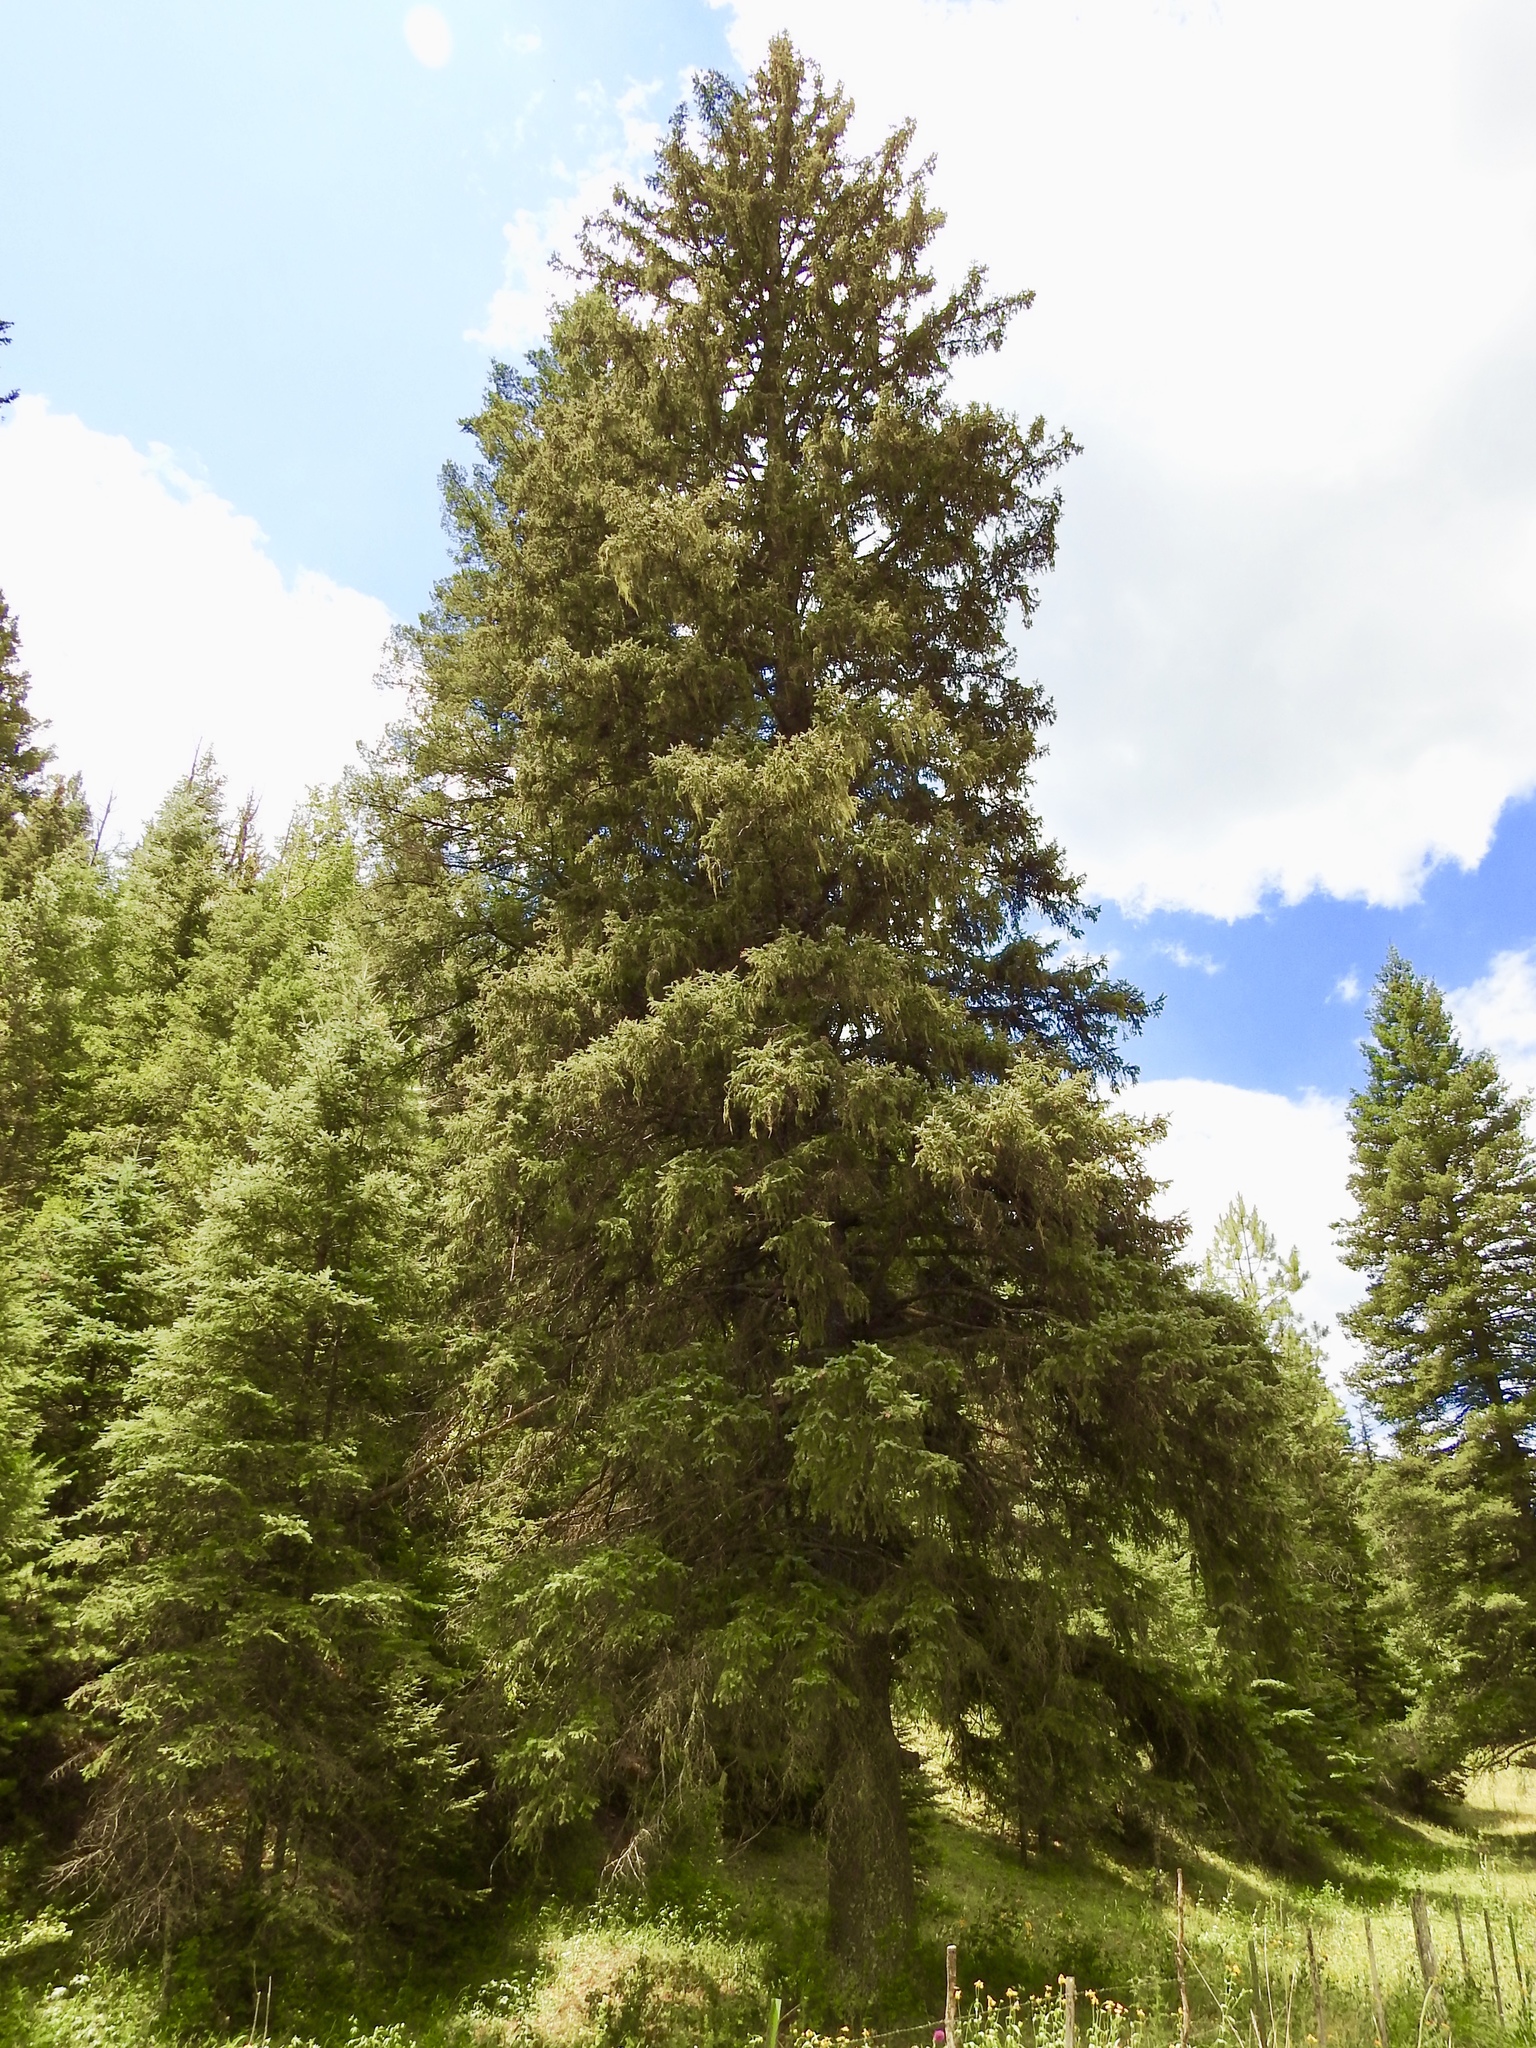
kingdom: Plantae
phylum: Tracheophyta
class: Pinopsida
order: Pinales
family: Pinaceae
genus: Pseudotsuga
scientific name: Pseudotsuga menziesii
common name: Douglas fir
